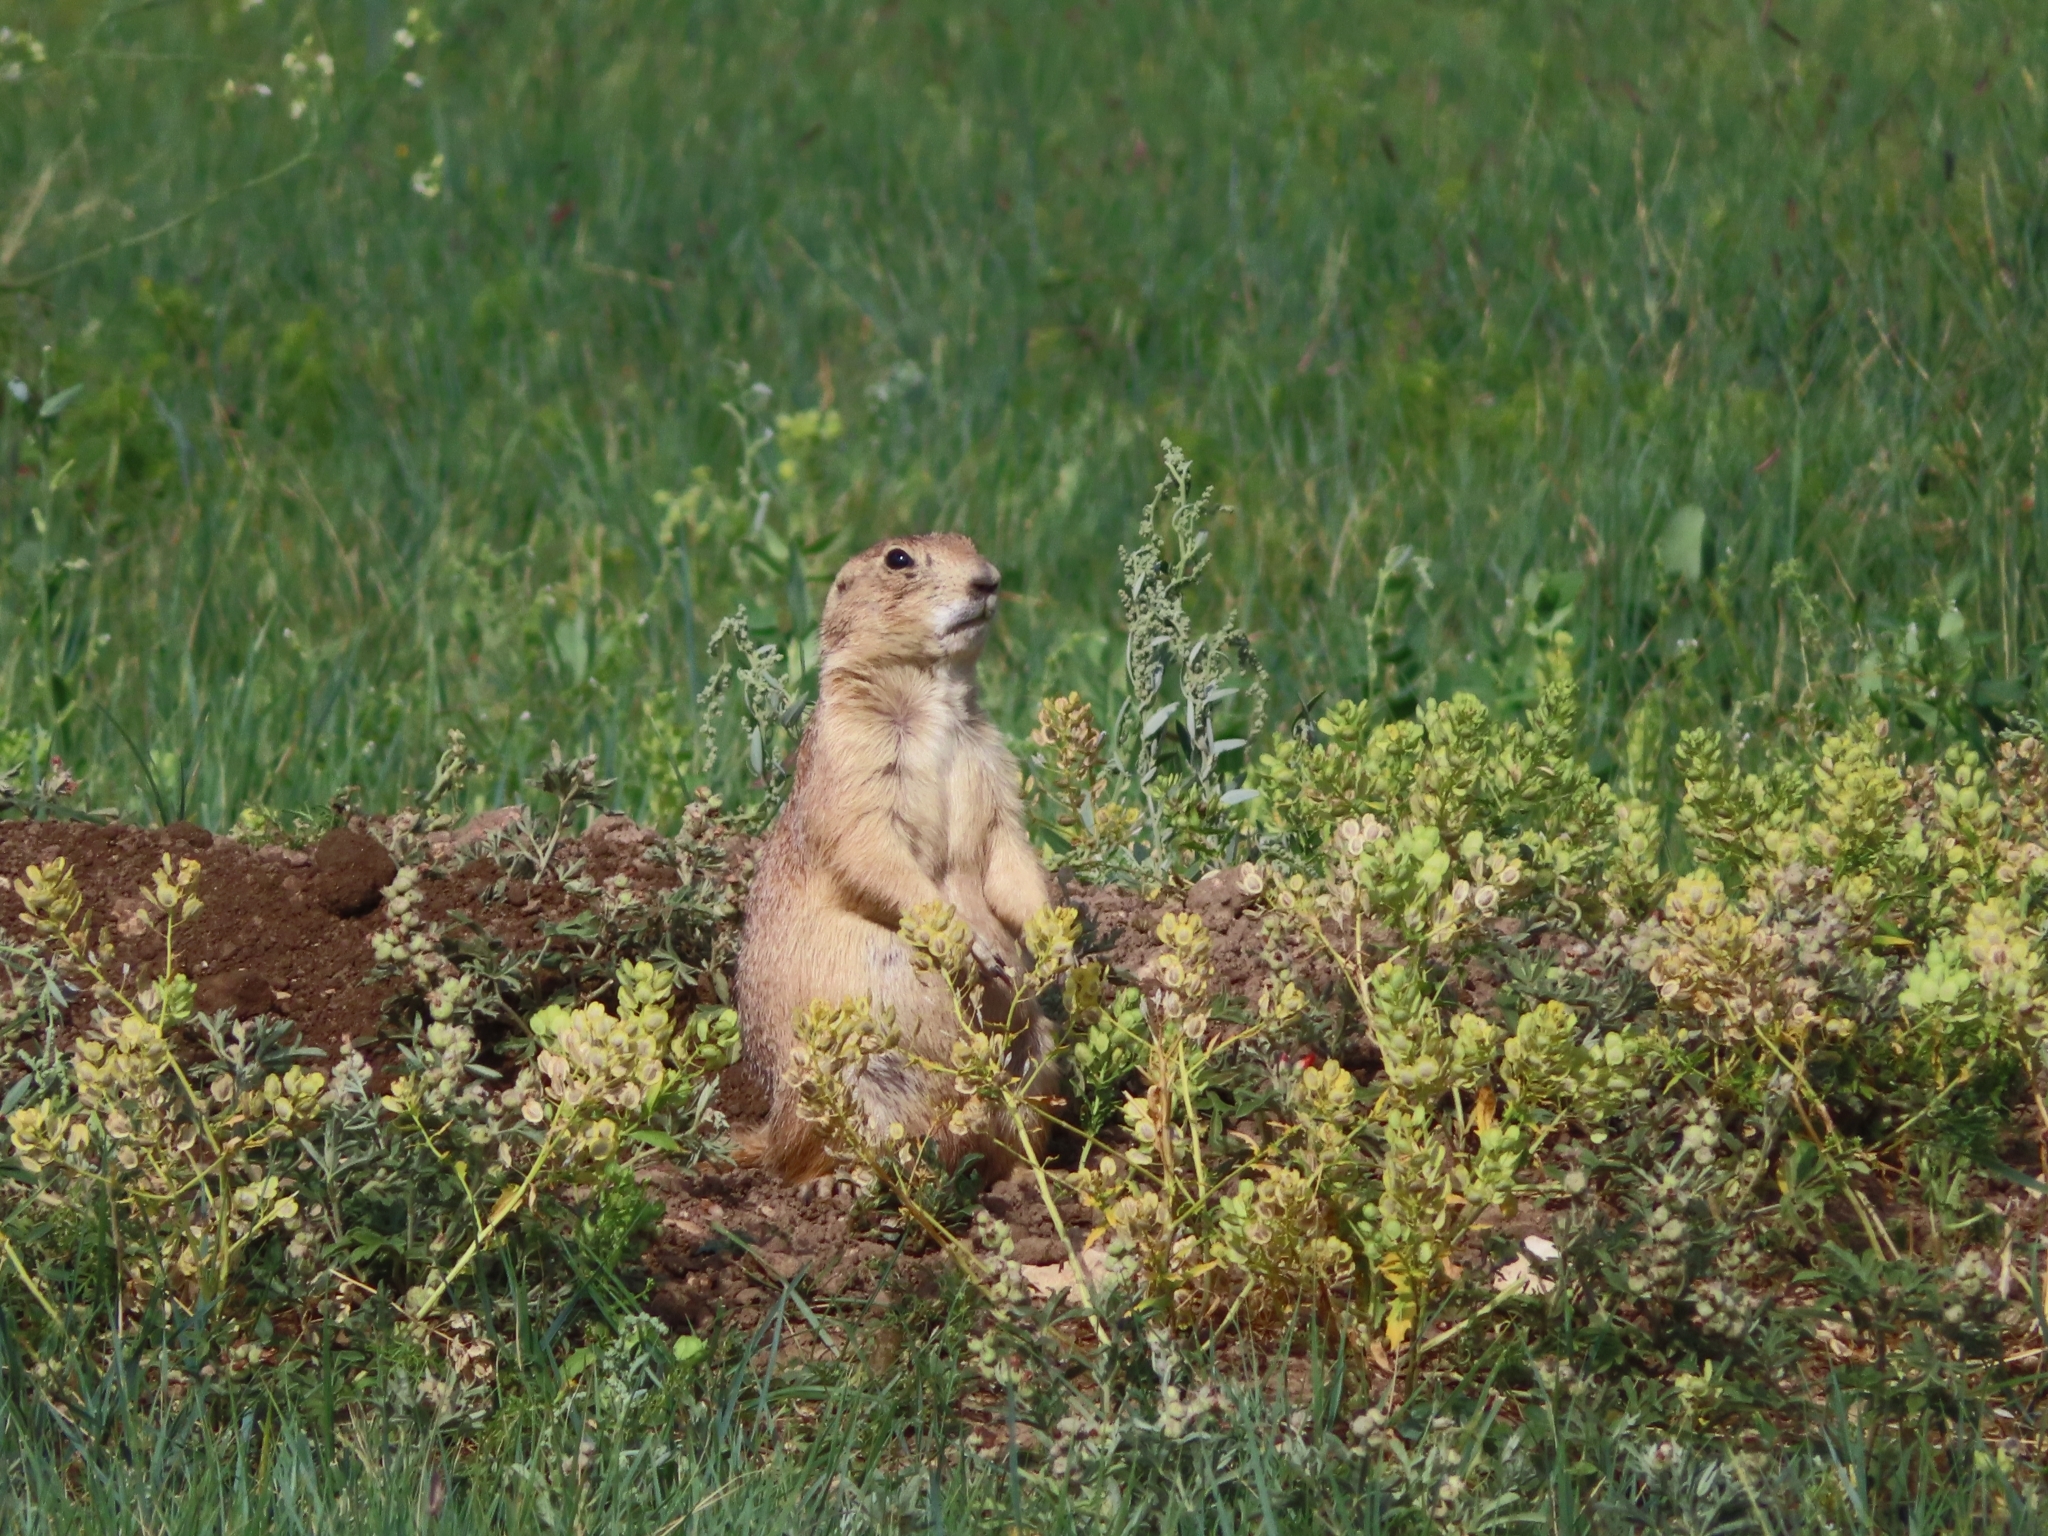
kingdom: Animalia
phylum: Chordata
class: Mammalia
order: Rodentia
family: Sciuridae
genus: Cynomys
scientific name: Cynomys ludovicianus
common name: Black-tailed prairie dog
